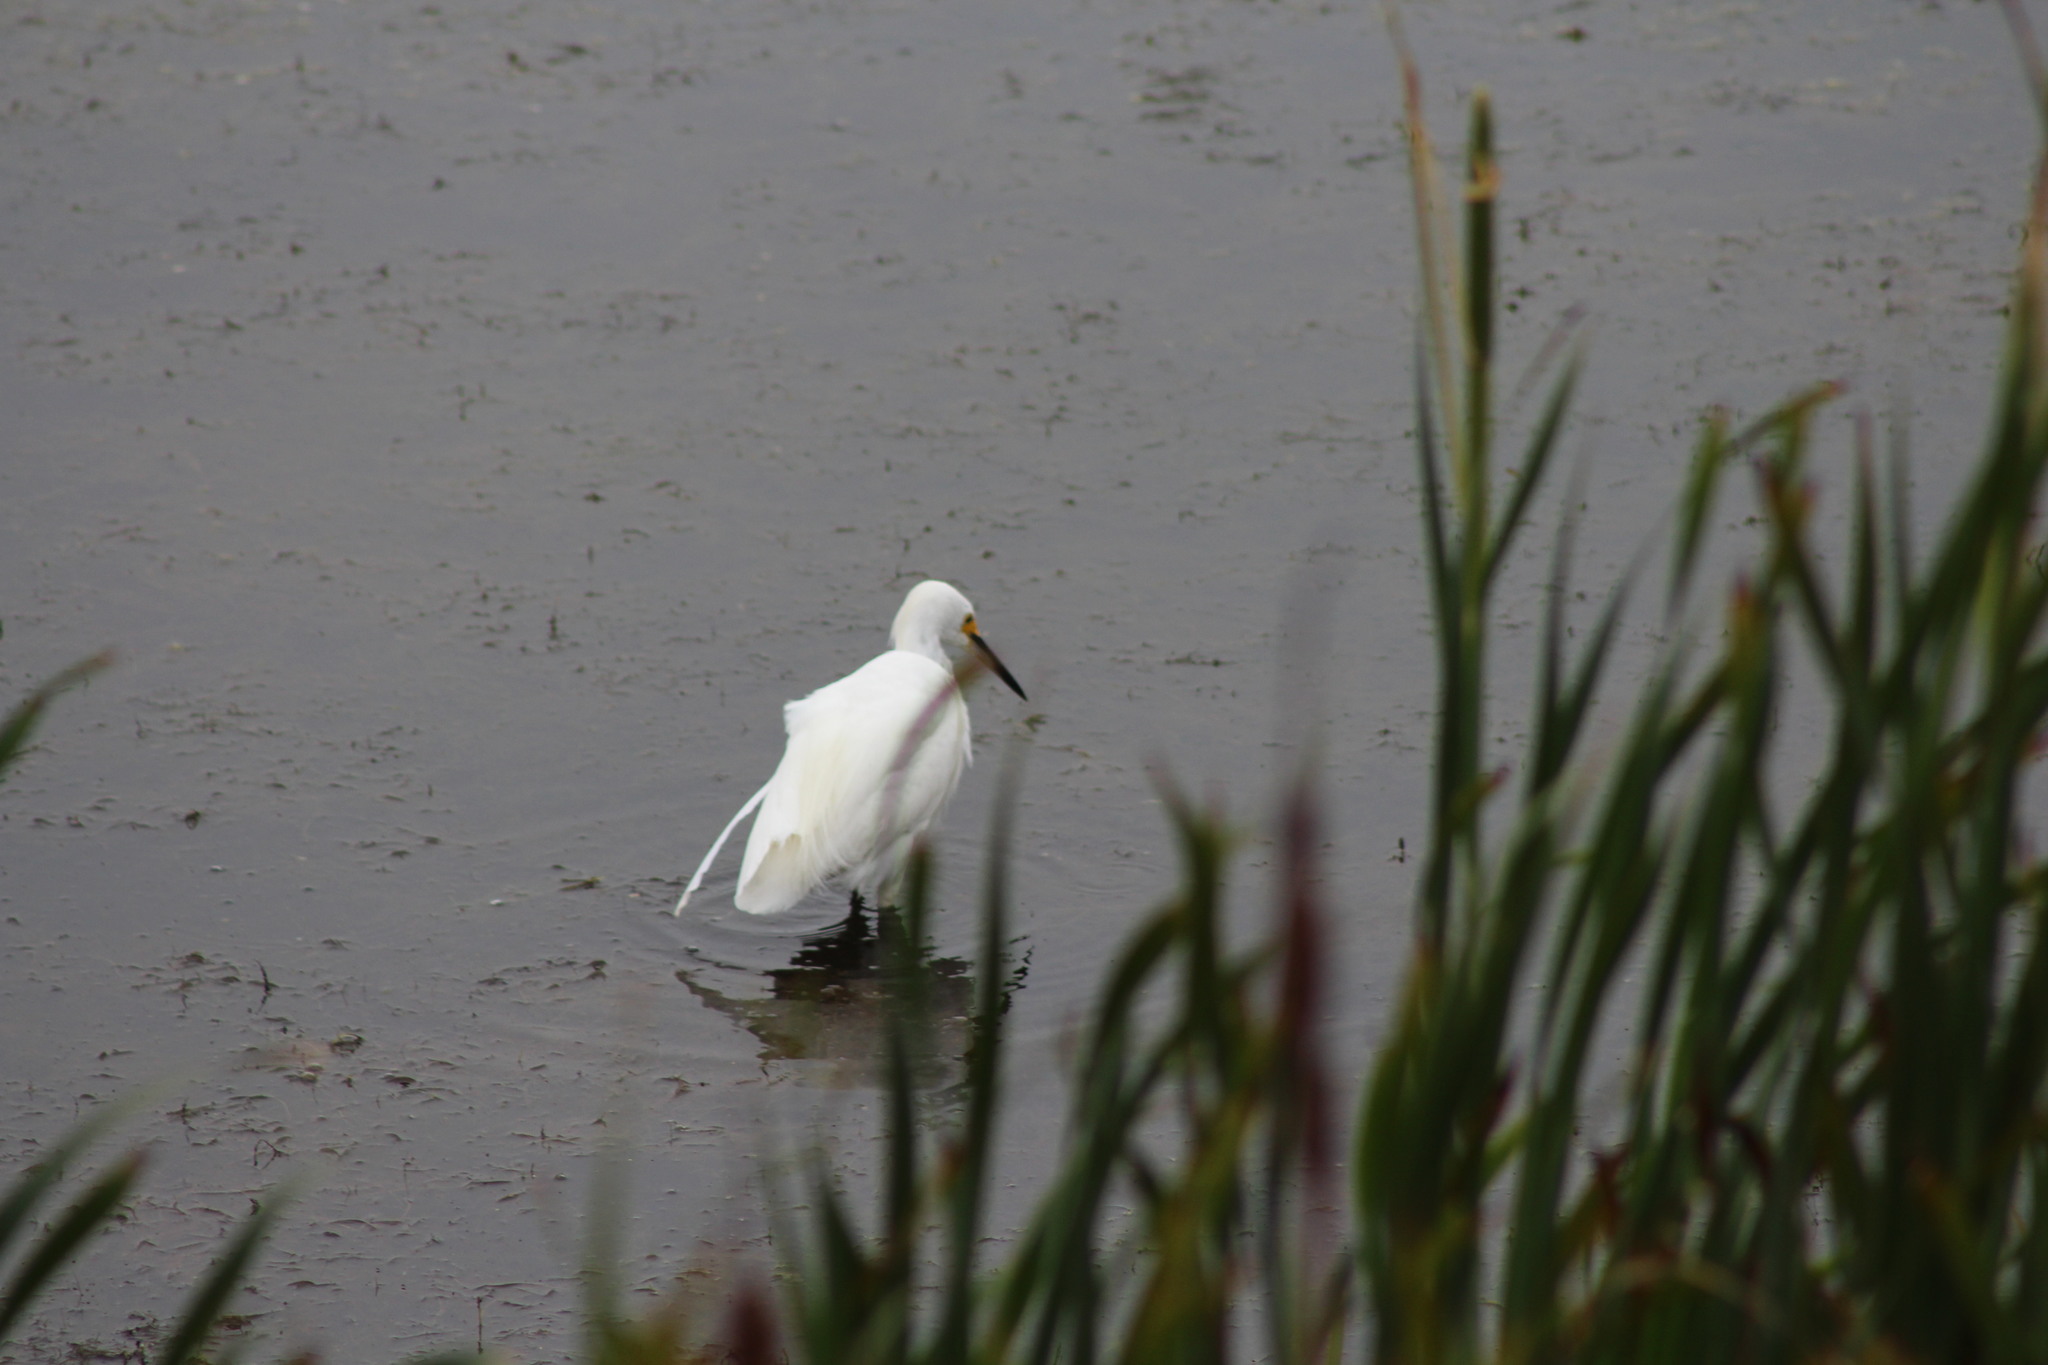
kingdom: Animalia
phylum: Chordata
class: Aves
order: Pelecaniformes
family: Ardeidae
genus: Egretta
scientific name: Egretta thula
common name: Snowy egret
